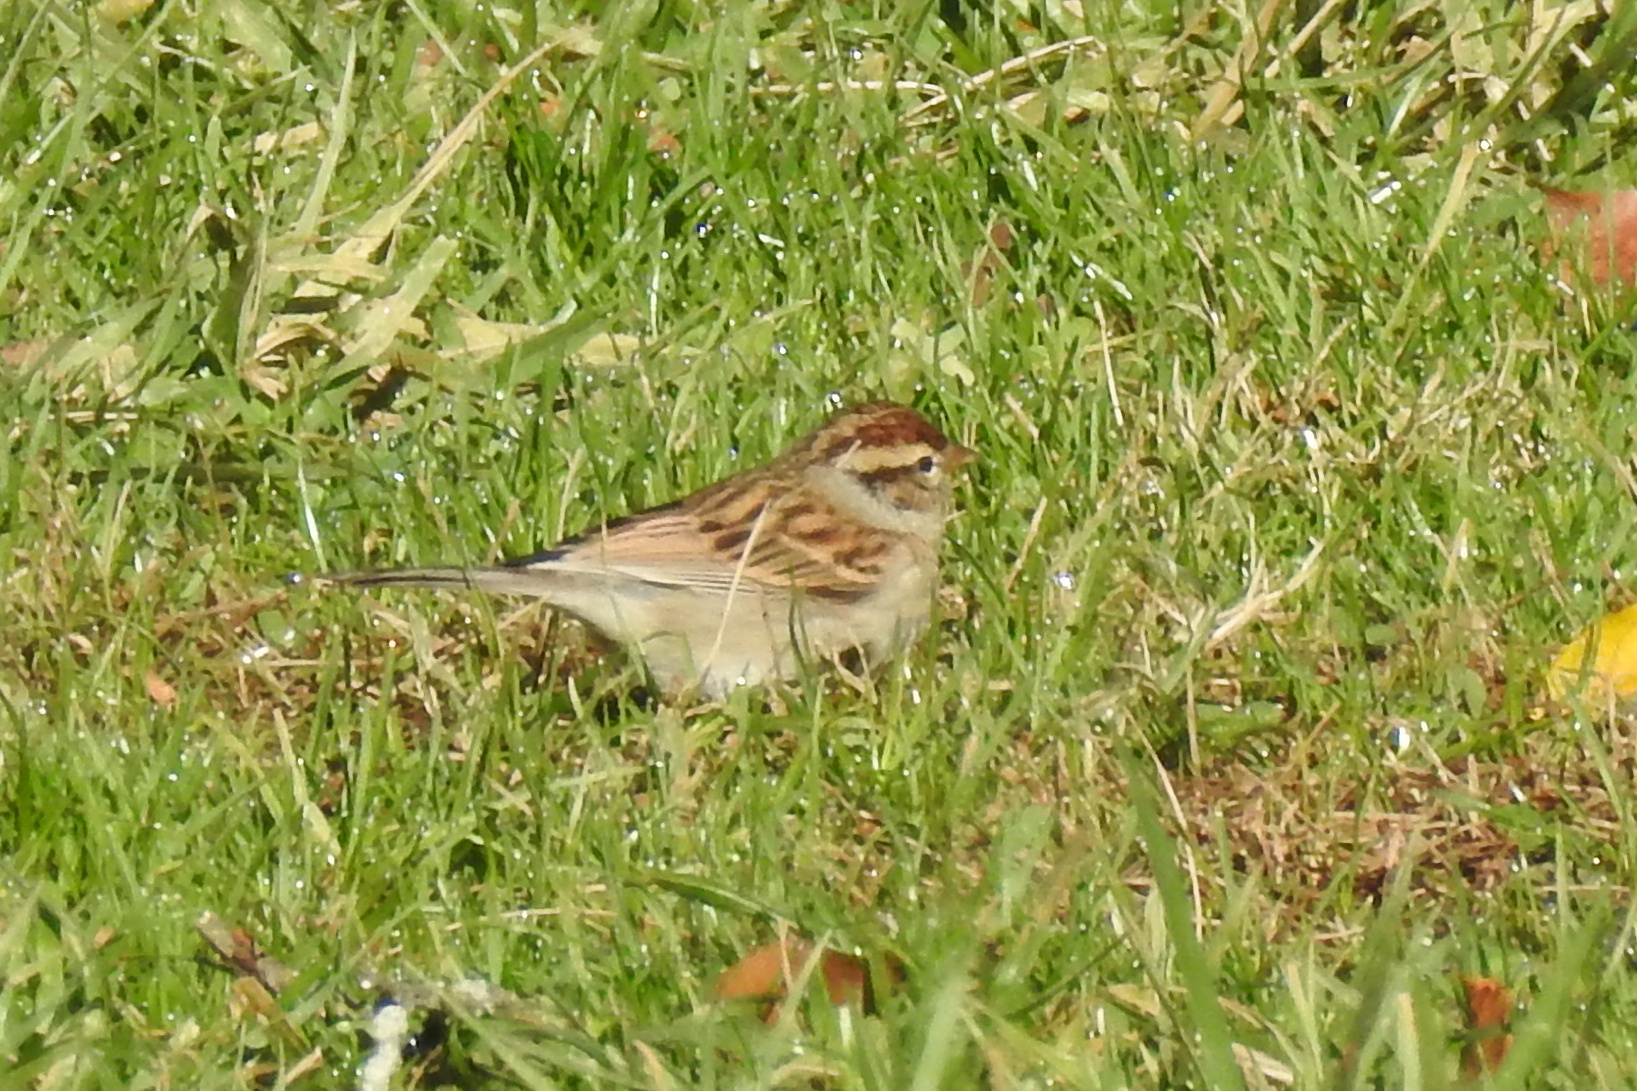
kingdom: Animalia
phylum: Chordata
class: Aves
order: Passeriformes
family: Passerellidae
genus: Spizella
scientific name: Spizella passerina
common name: Chipping sparrow
